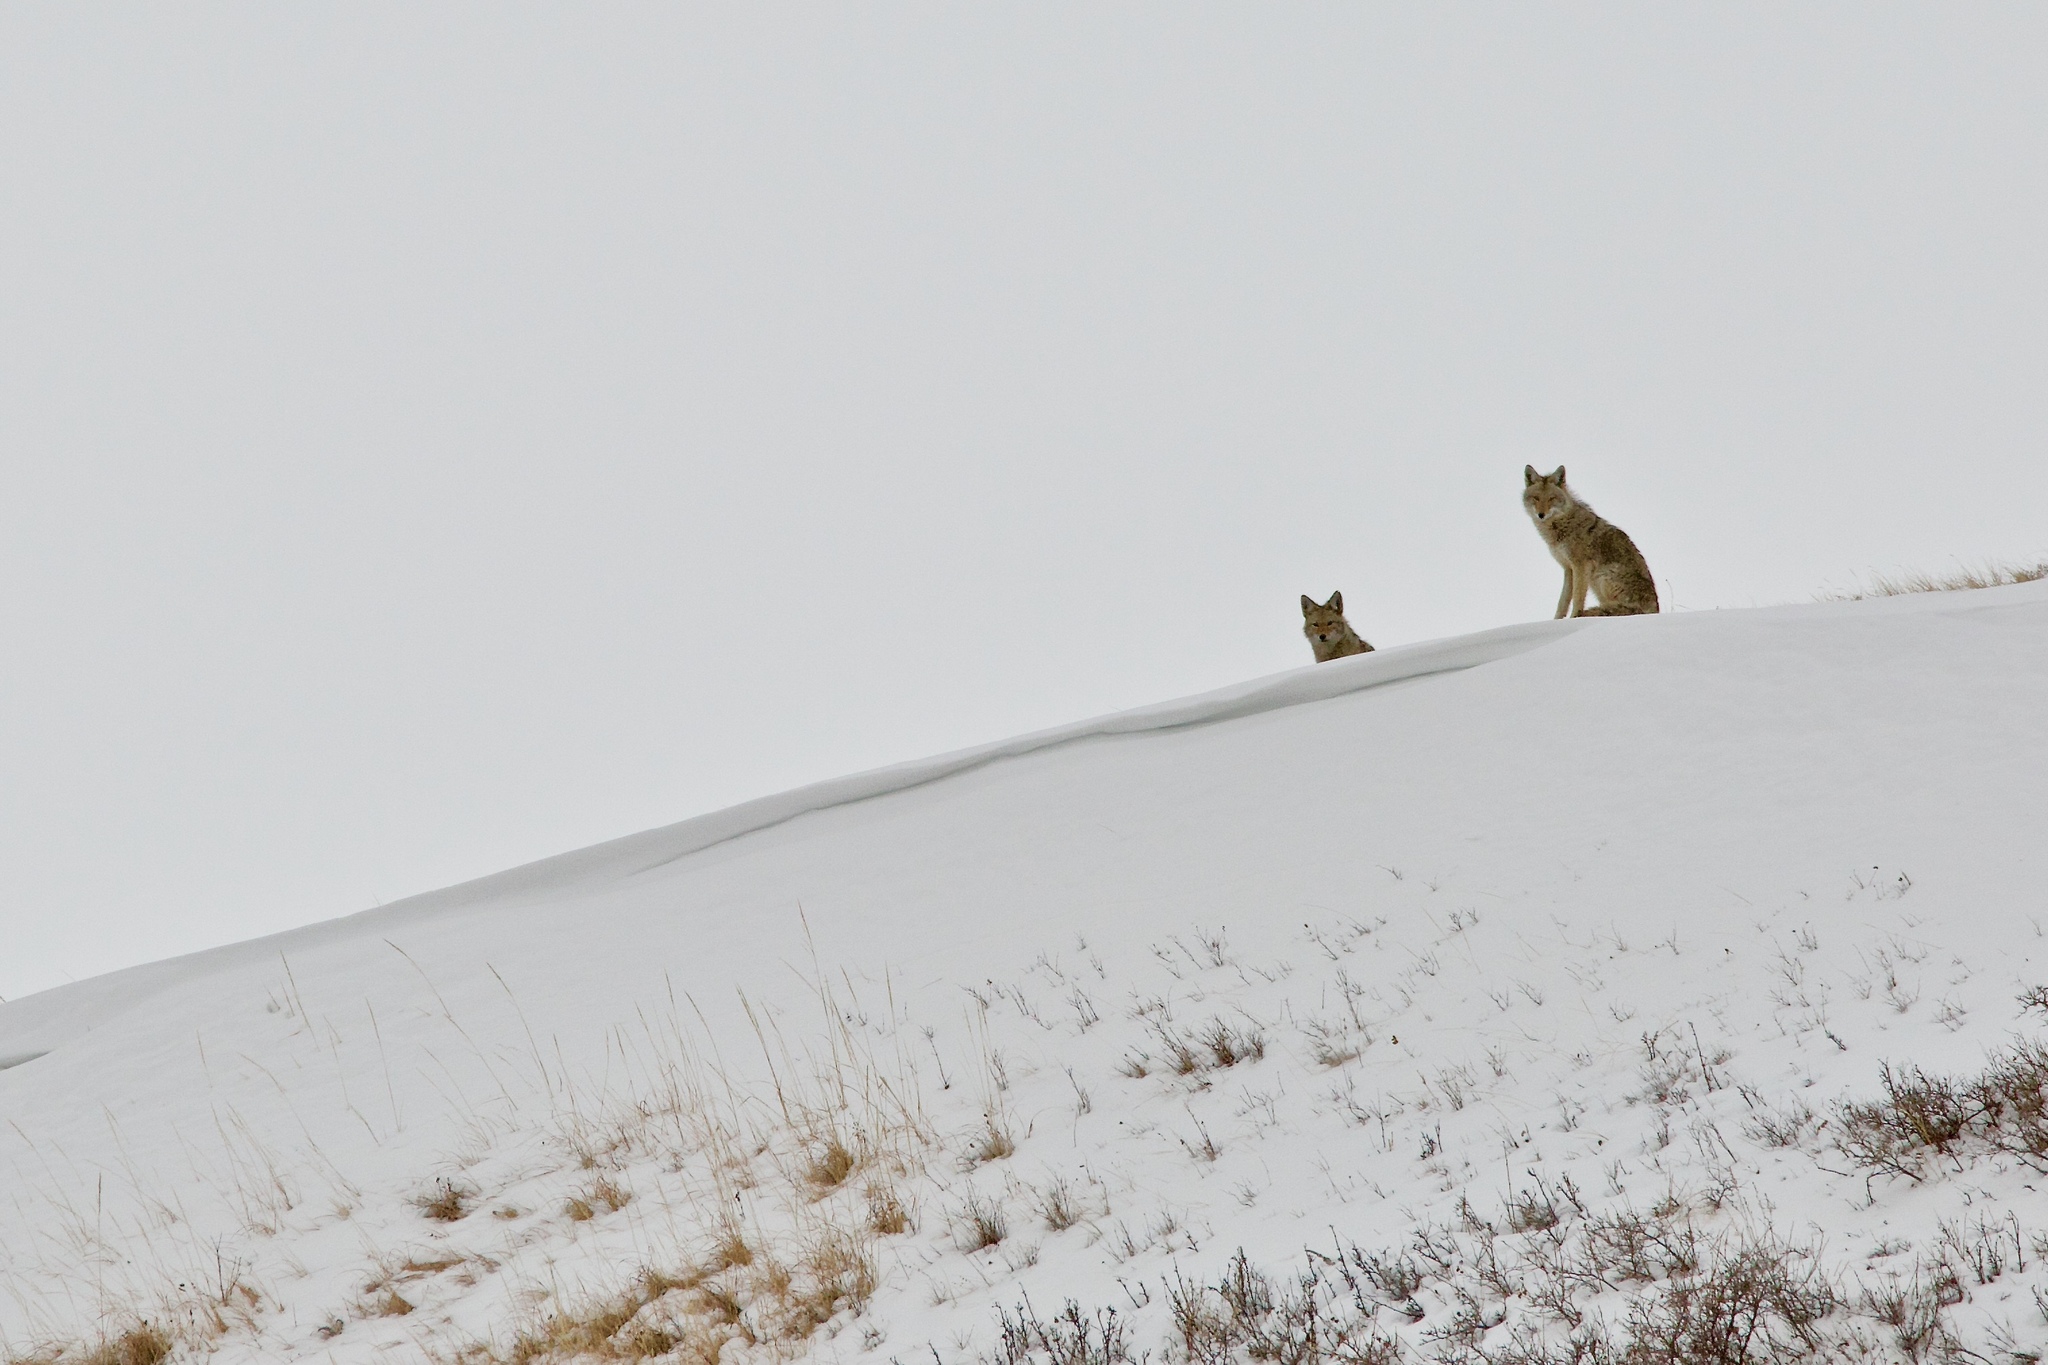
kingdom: Animalia
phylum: Chordata
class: Mammalia
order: Carnivora
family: Canidae
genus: Canis
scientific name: Canis latrans
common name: Coyote
